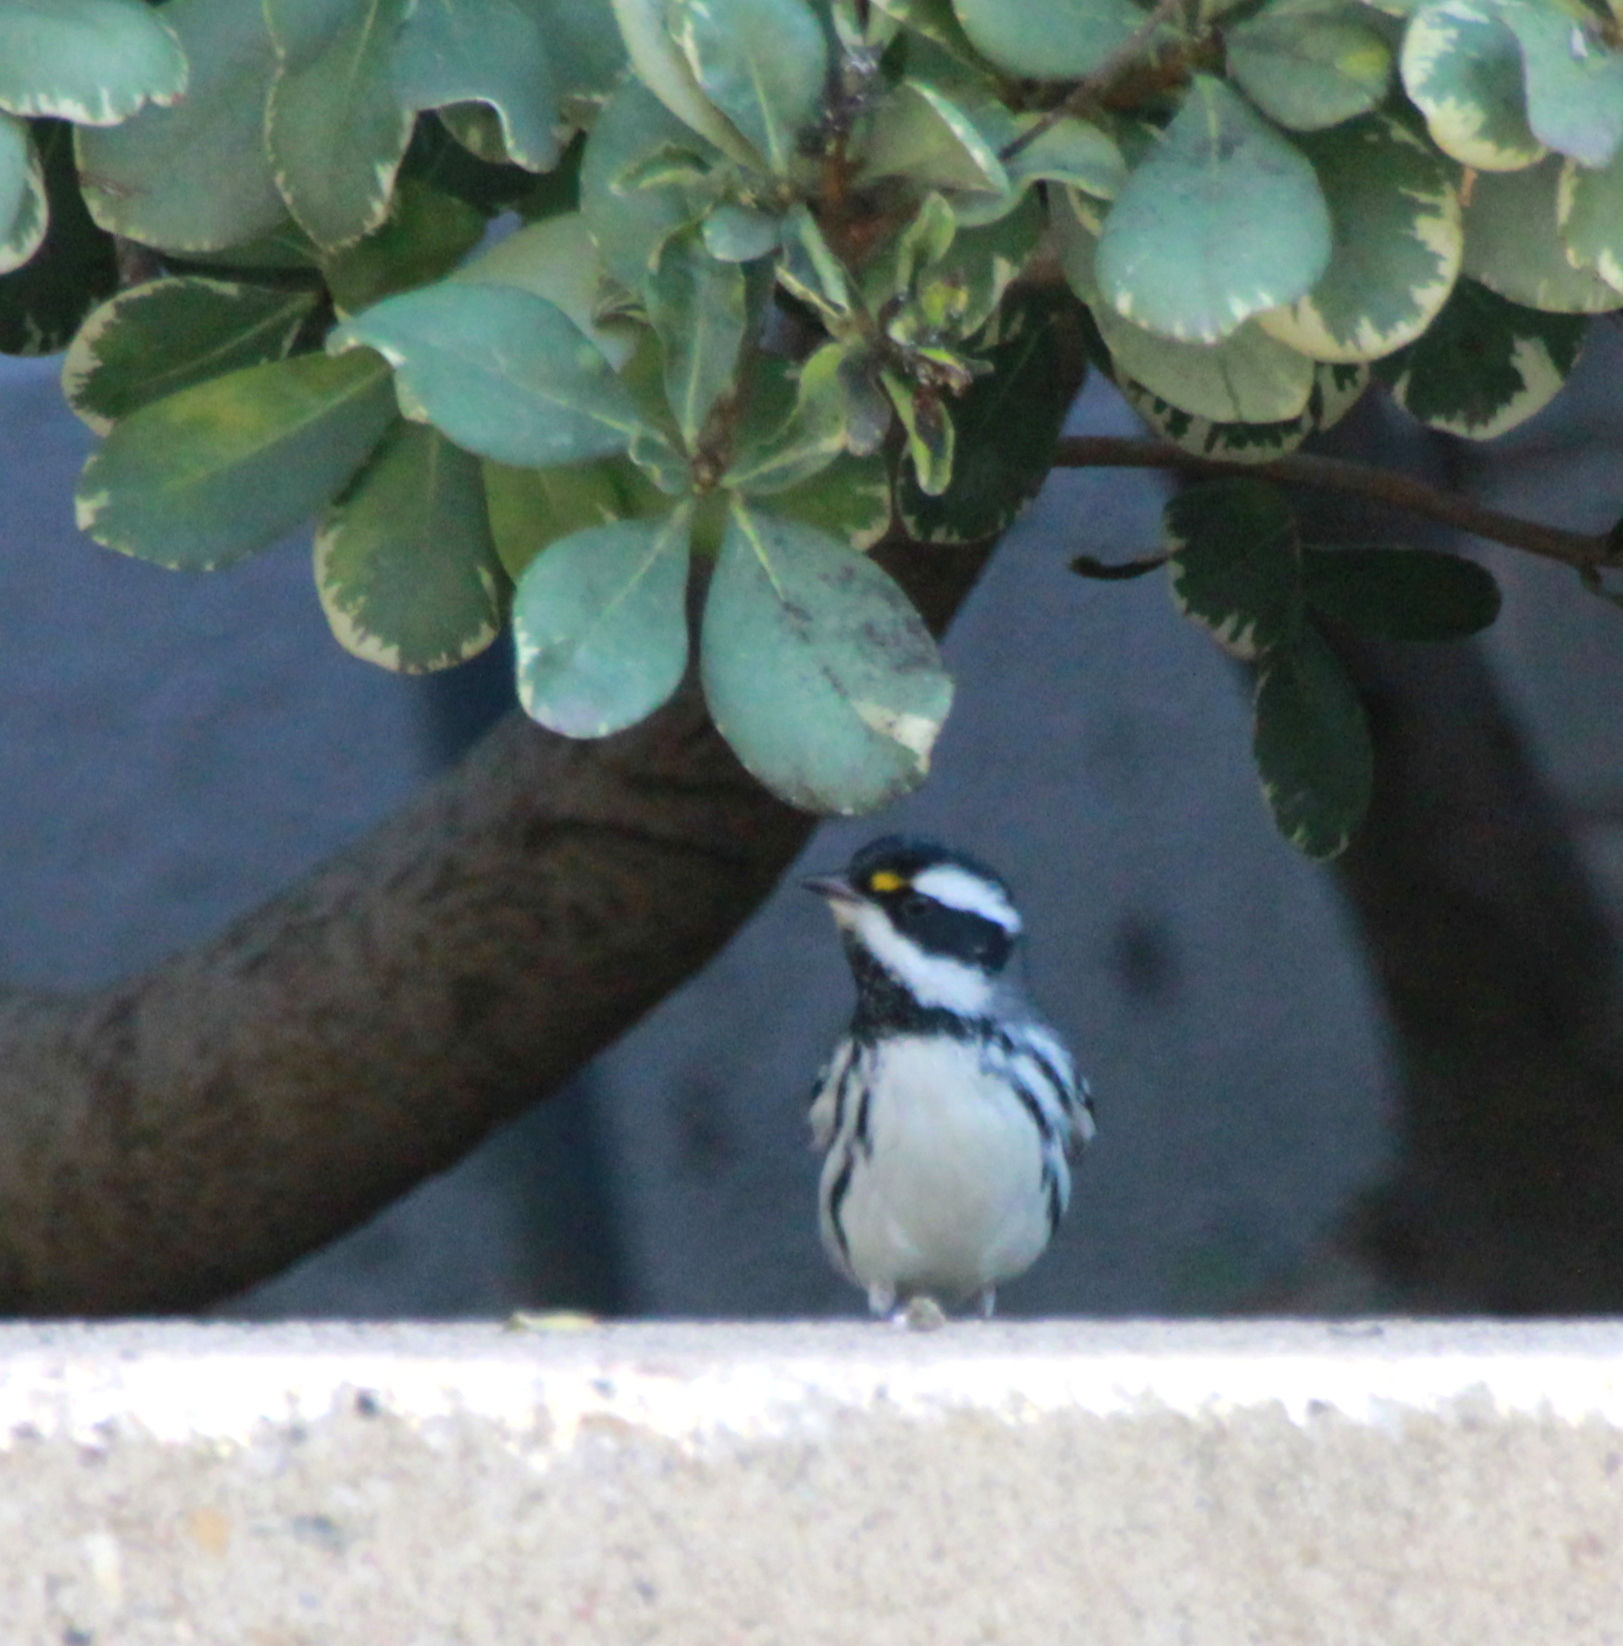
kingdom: Animalia
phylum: Chordata
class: Aves
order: Passeriformes
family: Parulidae
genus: Setophaga
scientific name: Setophaga nigrescens
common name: Black-throated gray warbler
